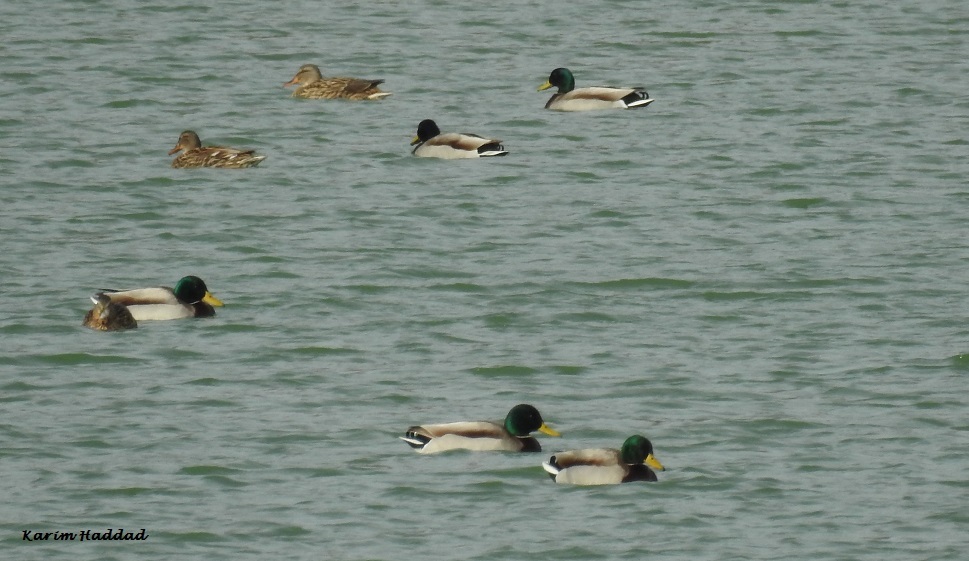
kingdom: Animalia
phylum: Chordata
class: Aves
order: Anseriformes
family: Anatidae
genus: Anas
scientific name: Anas platyrhynchos
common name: Mallard
